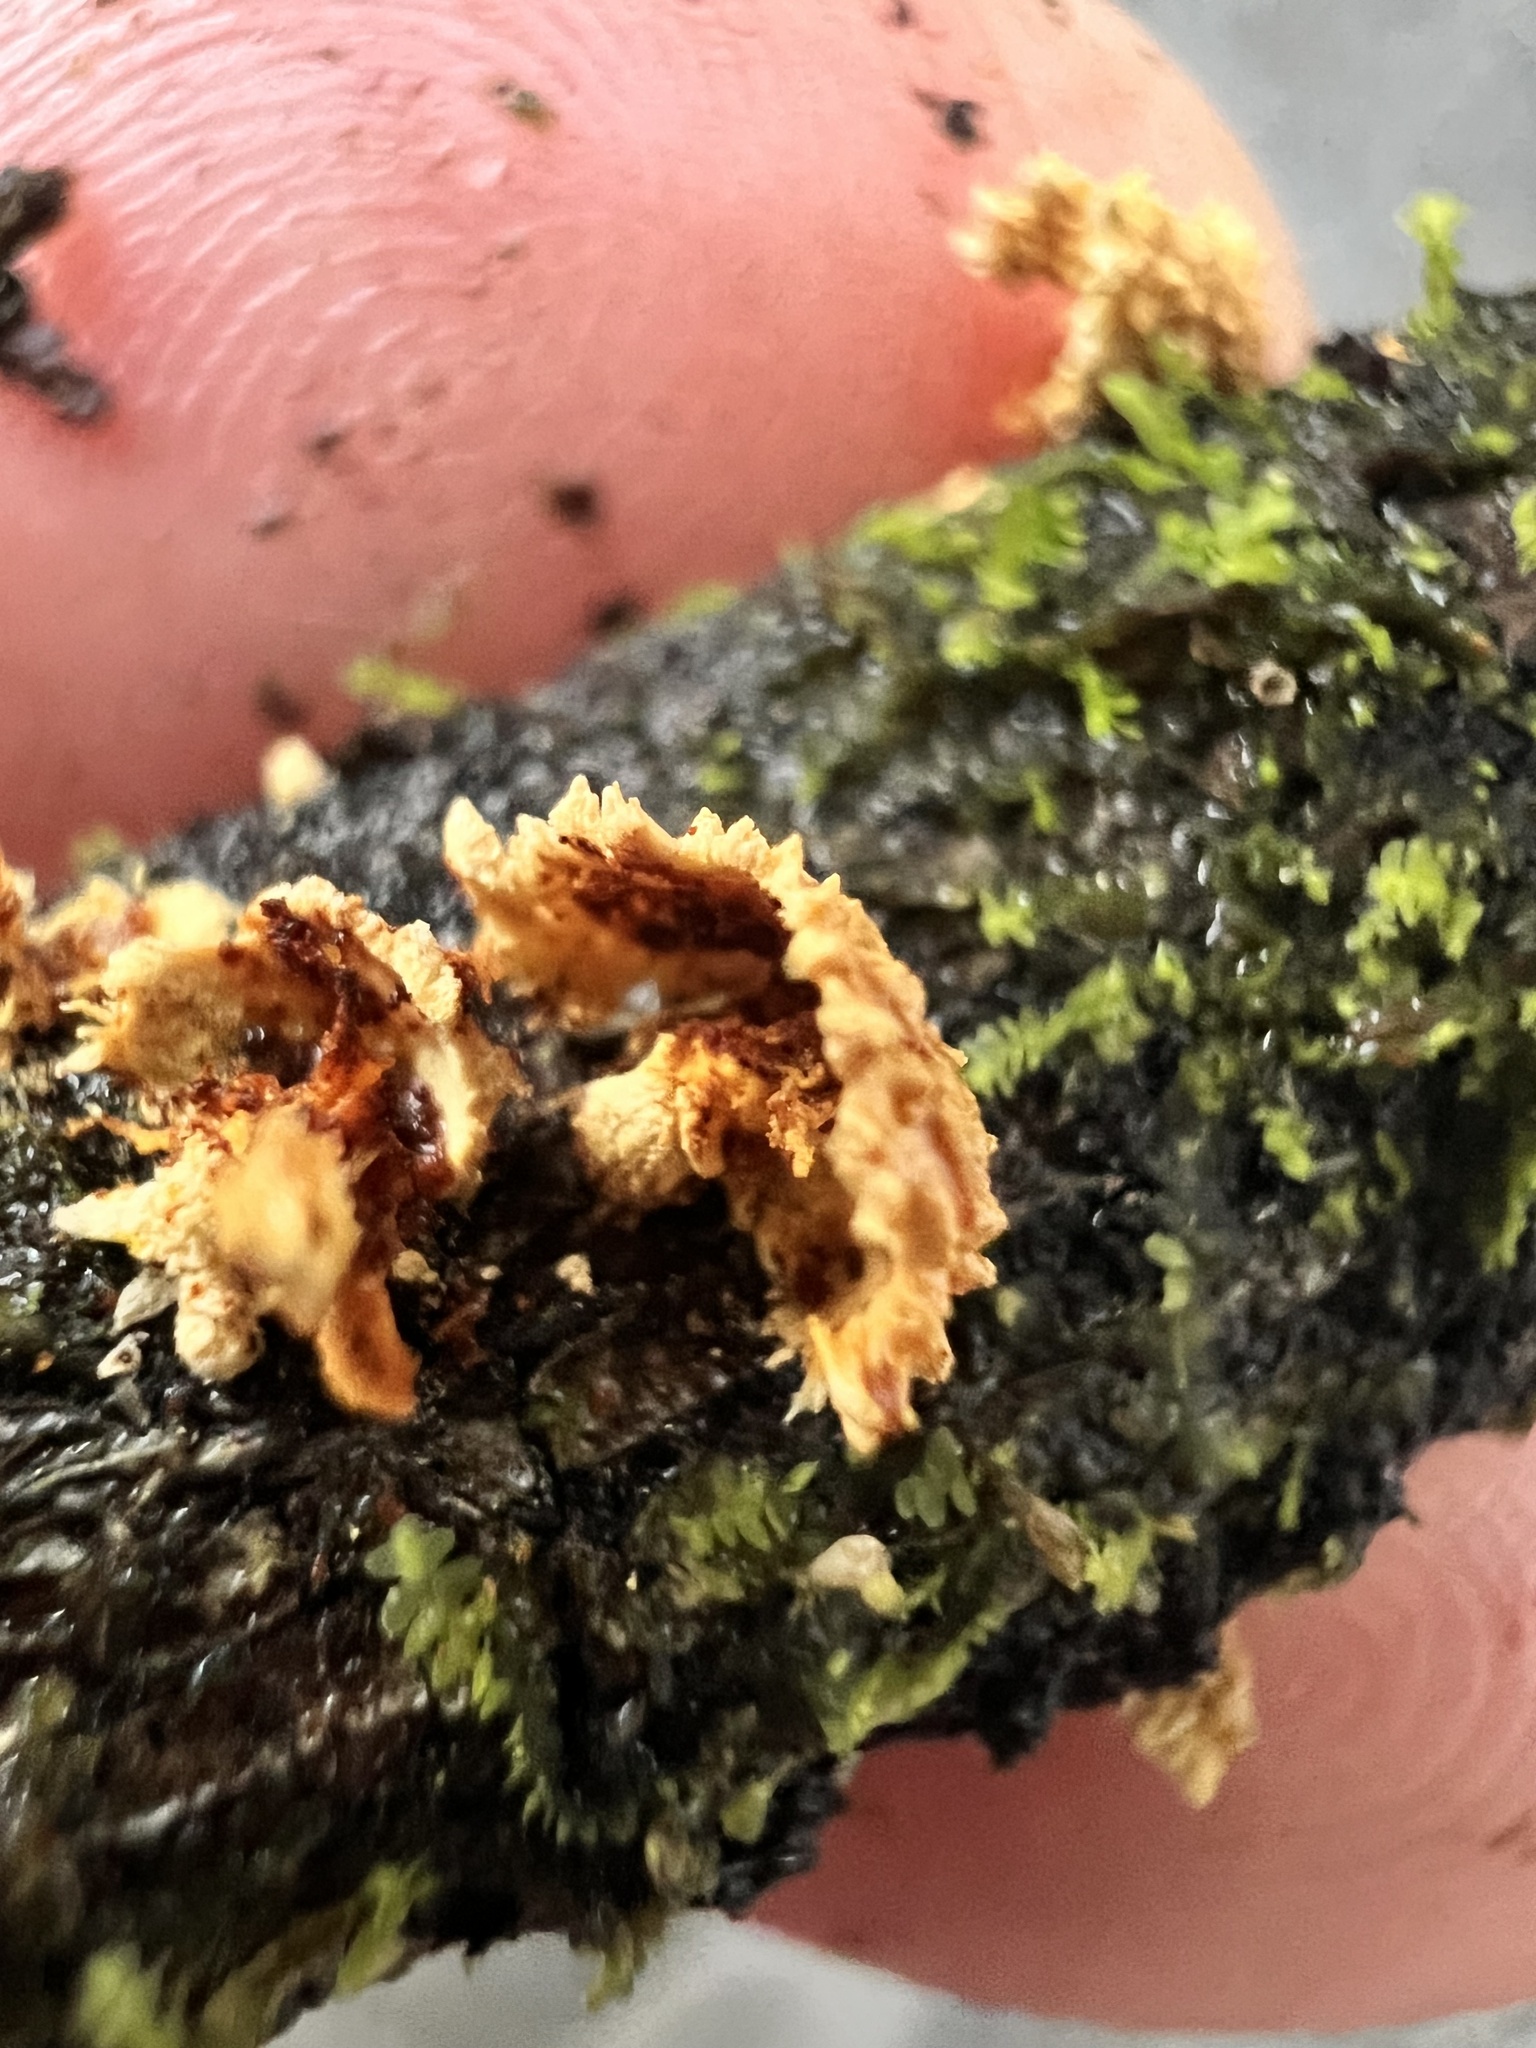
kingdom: Fungi
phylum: Basidiomycota
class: Agaricomycetes
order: Agaricales
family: Crepidotaceae
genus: Pleuroflammula
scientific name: Pleuroflammula praestans
